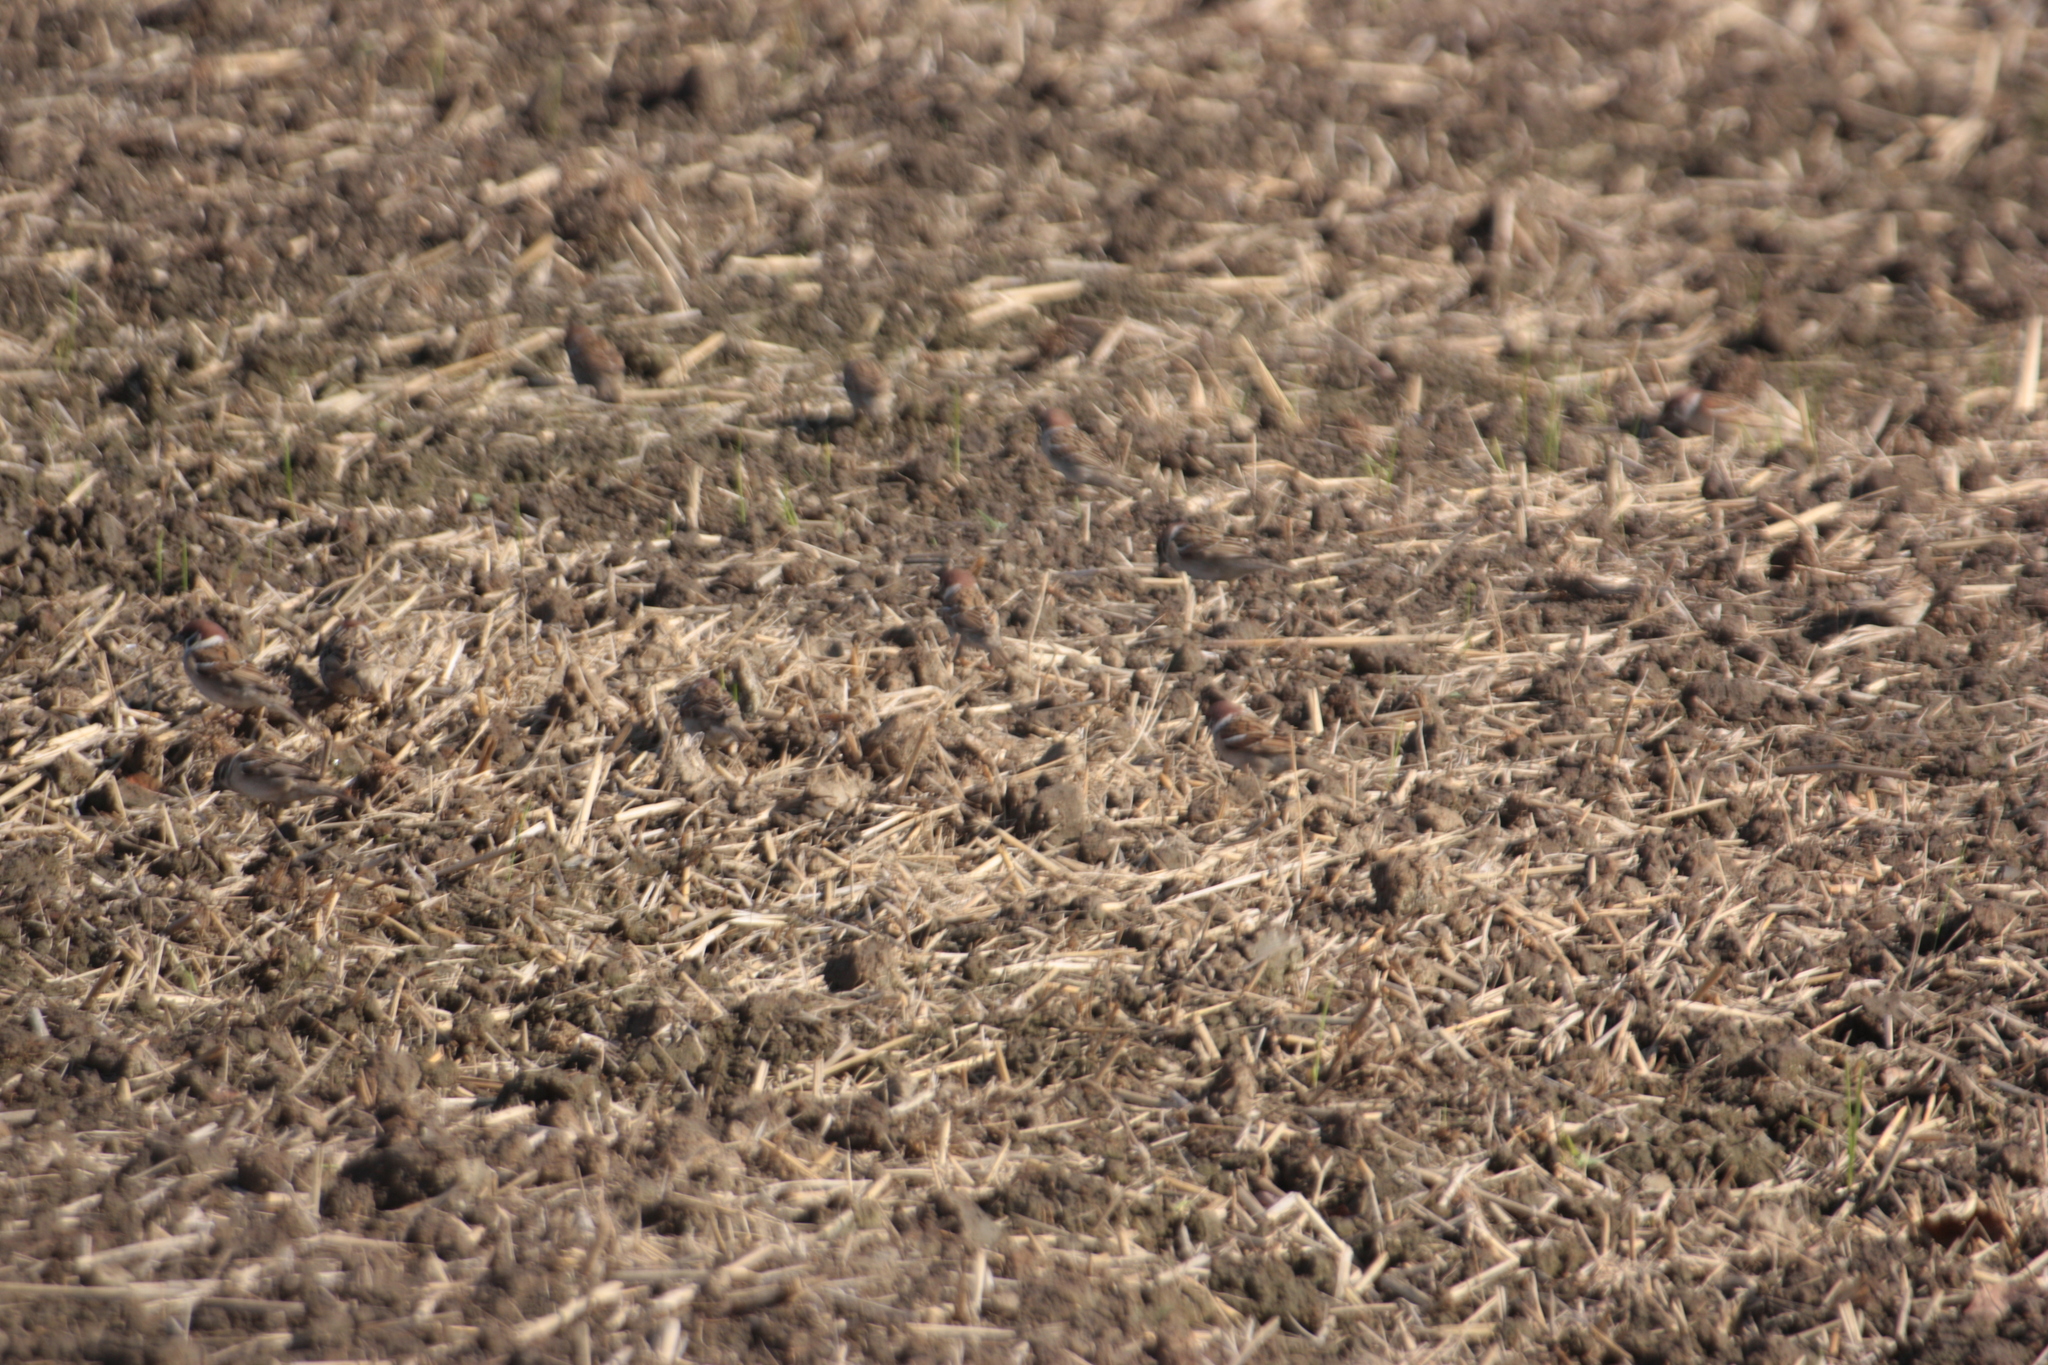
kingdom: Animalia
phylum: Chordata
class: Aves
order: Passeriformes
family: Passeridae
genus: Passer
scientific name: Passer montanus
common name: Eurasian tree sparrow
